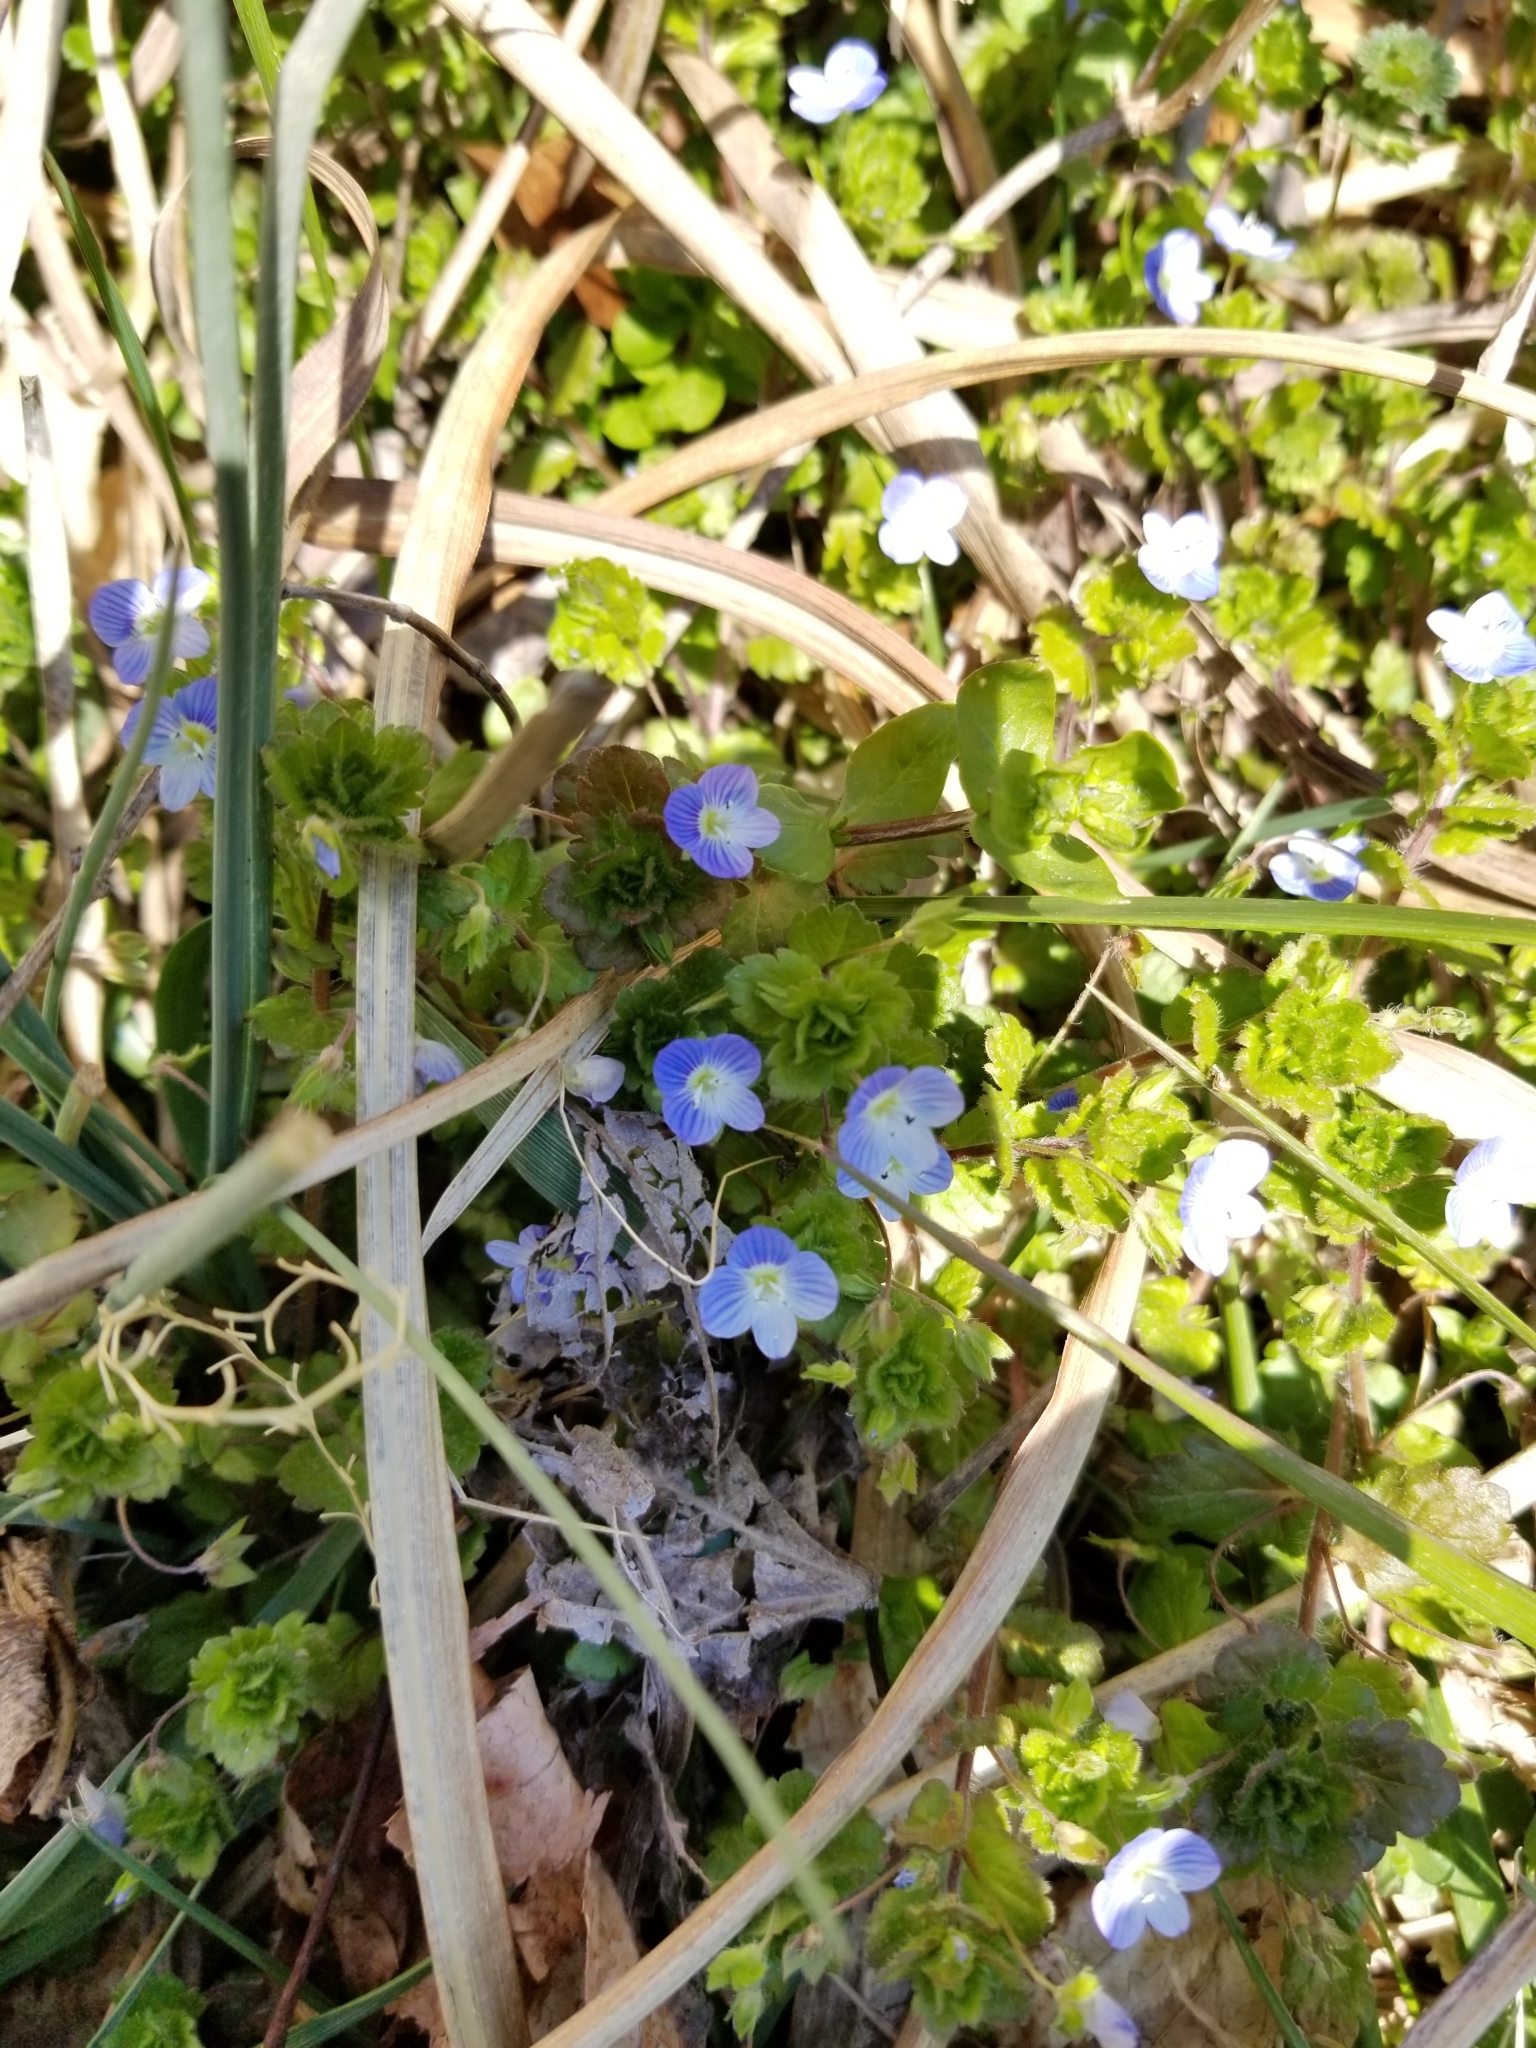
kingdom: Plantae
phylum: Tracheophyta
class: Magnoliopsida
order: Lamiales
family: Plantaginaceae
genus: Veronica
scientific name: Veronica persica
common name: Common field-speedwell
